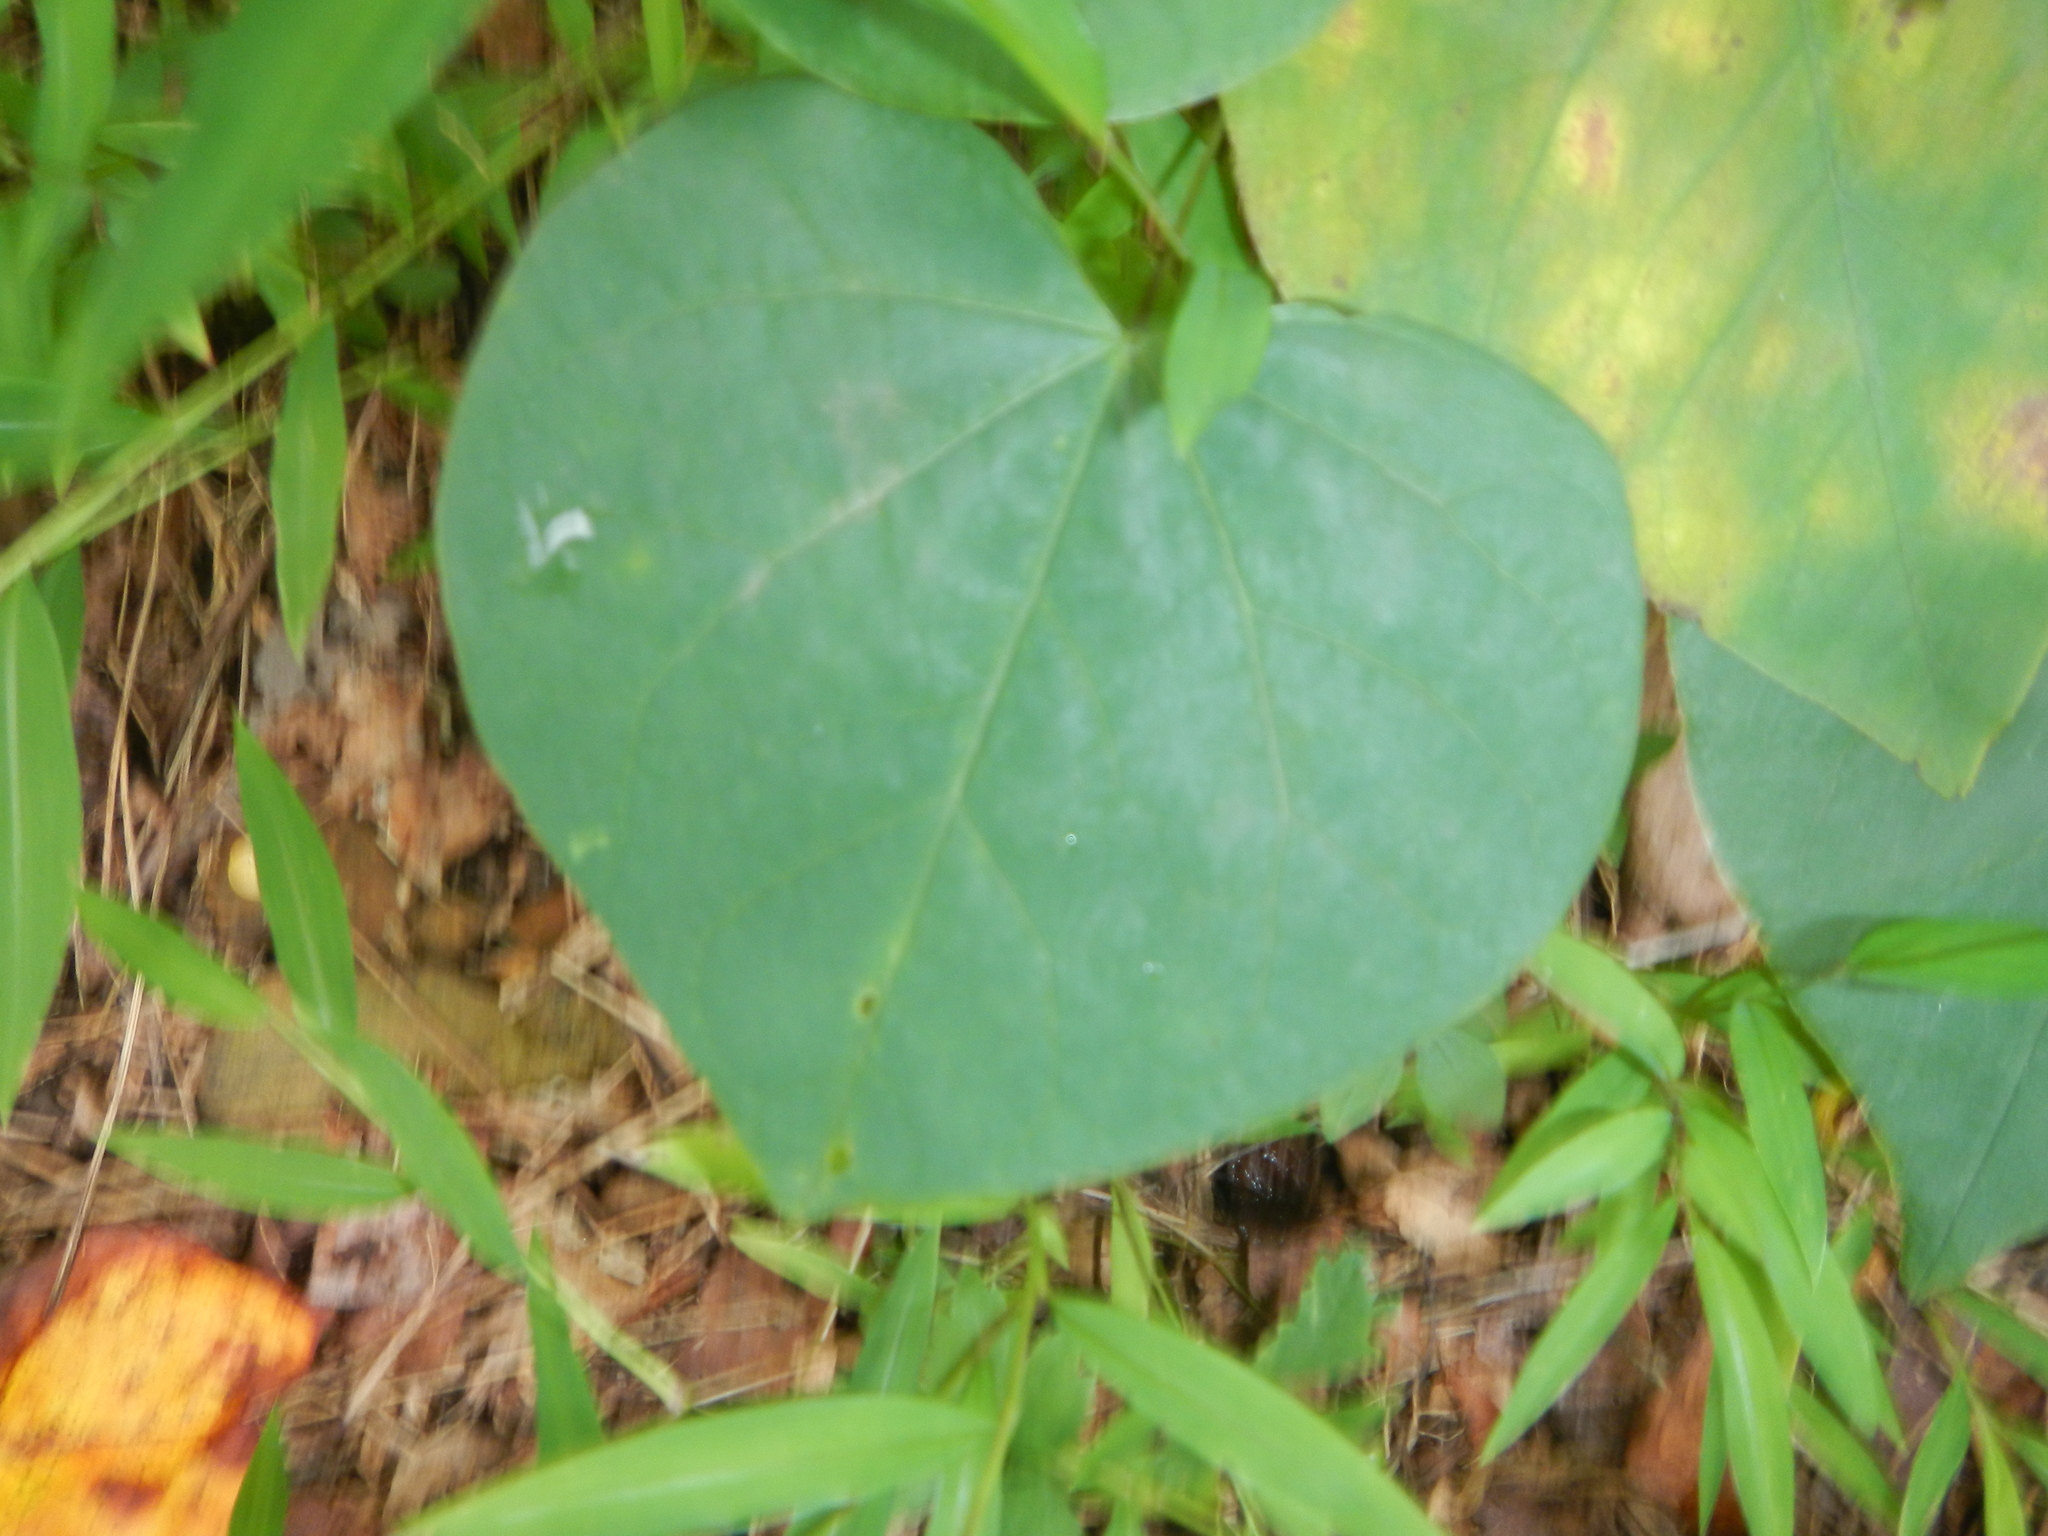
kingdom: Plantae
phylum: Tracheophyta
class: Magnoliopsida
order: Fabales
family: Fabaceae
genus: Cercis
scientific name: Cercis canadensis
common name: Eastern redbud
